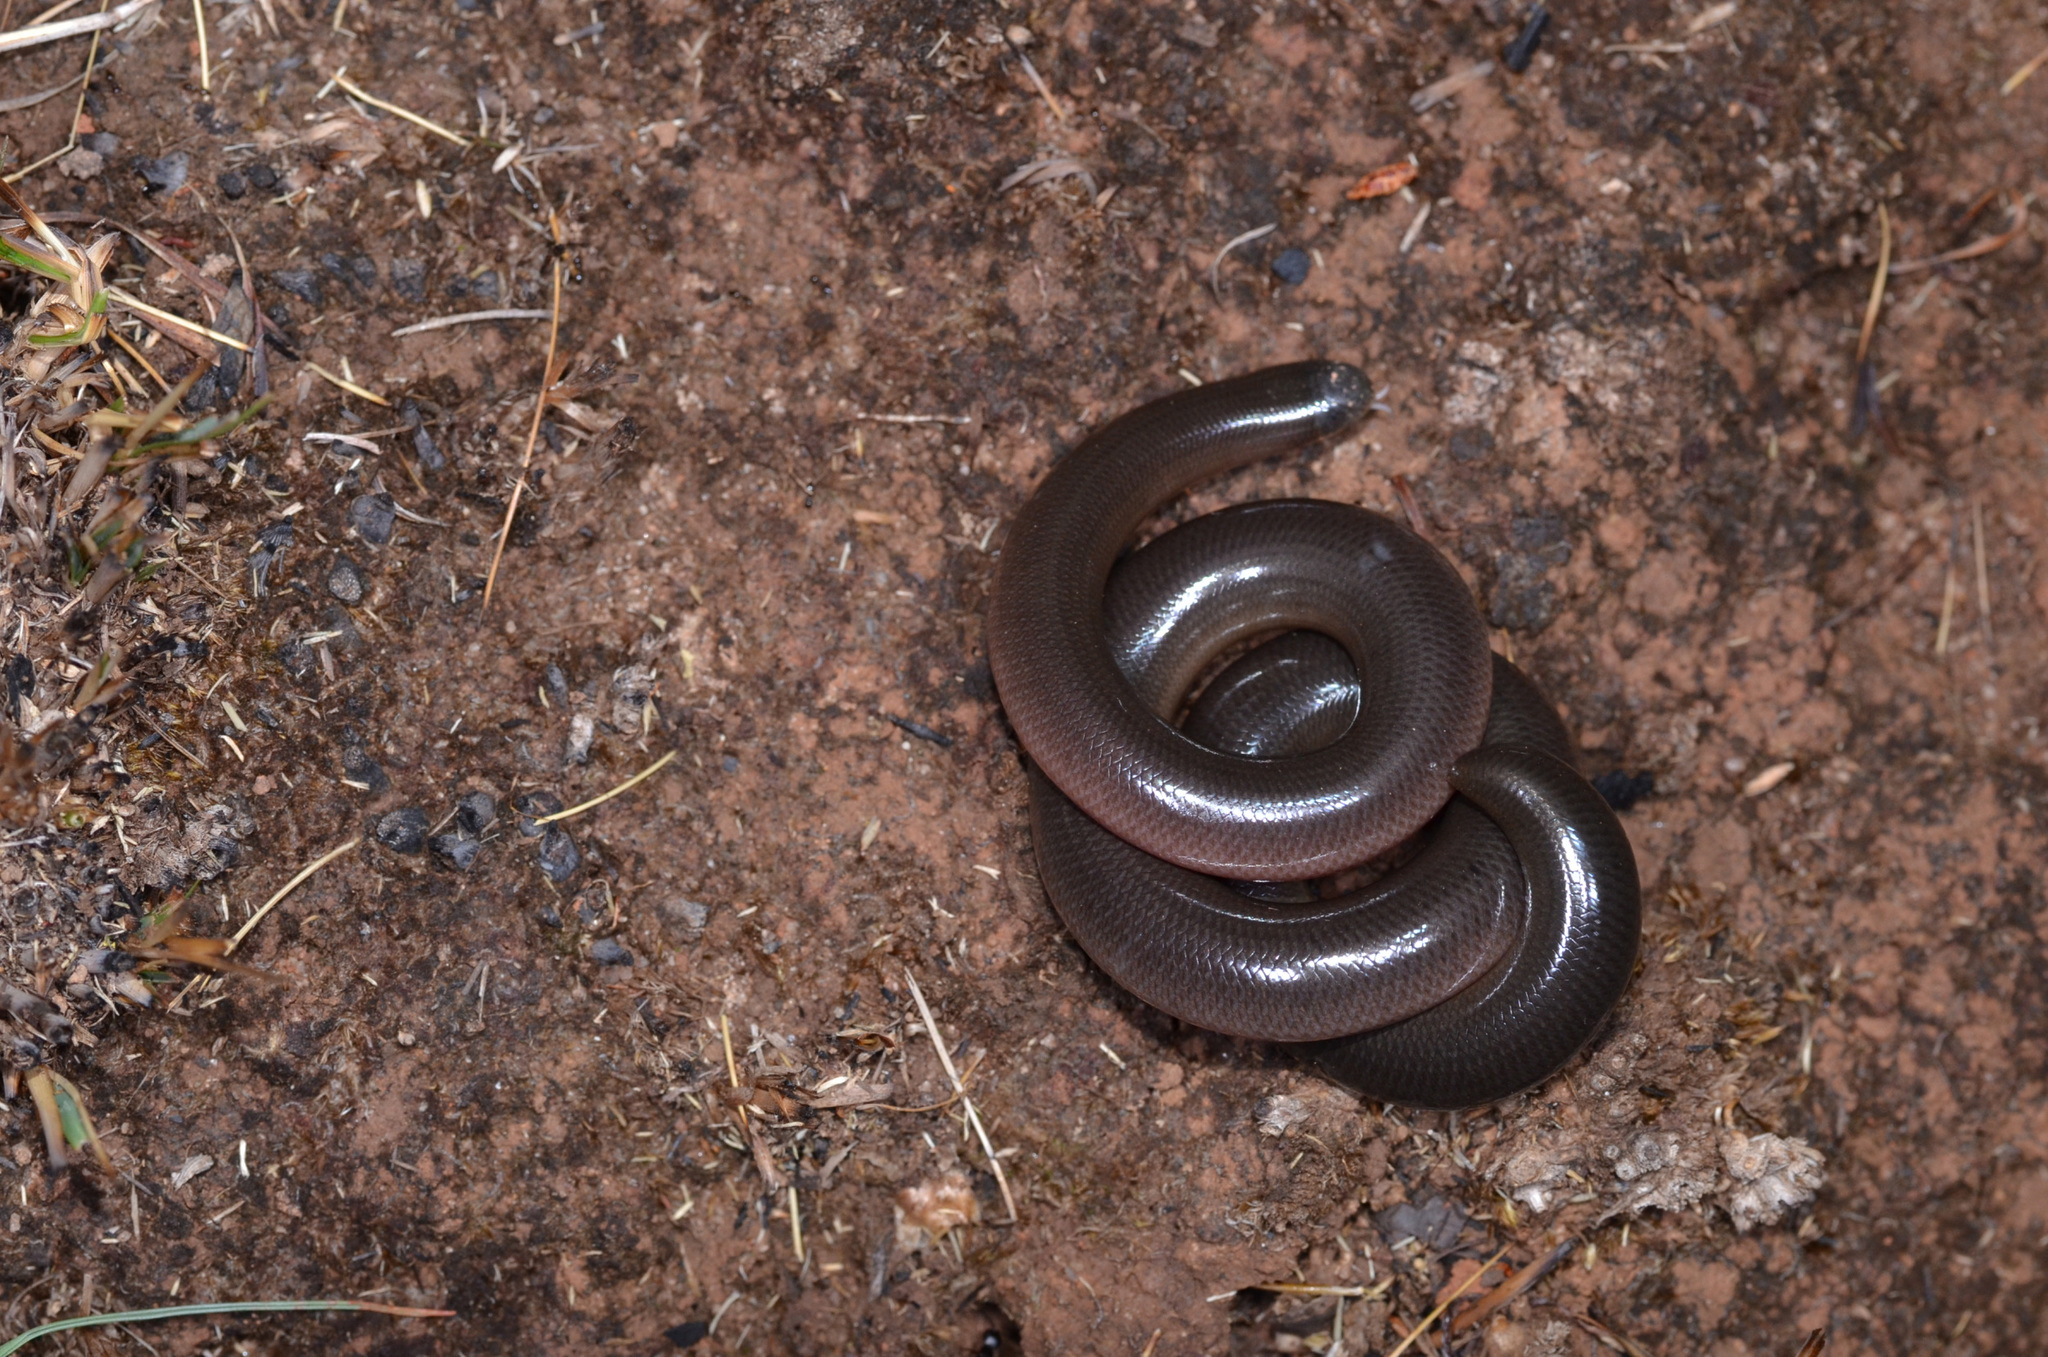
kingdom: Animalia
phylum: Chordata
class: Squamata
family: Typhlopidae
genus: Afrotyphlops
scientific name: Afrotyphlops mucruso
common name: Zambezi blind snake
